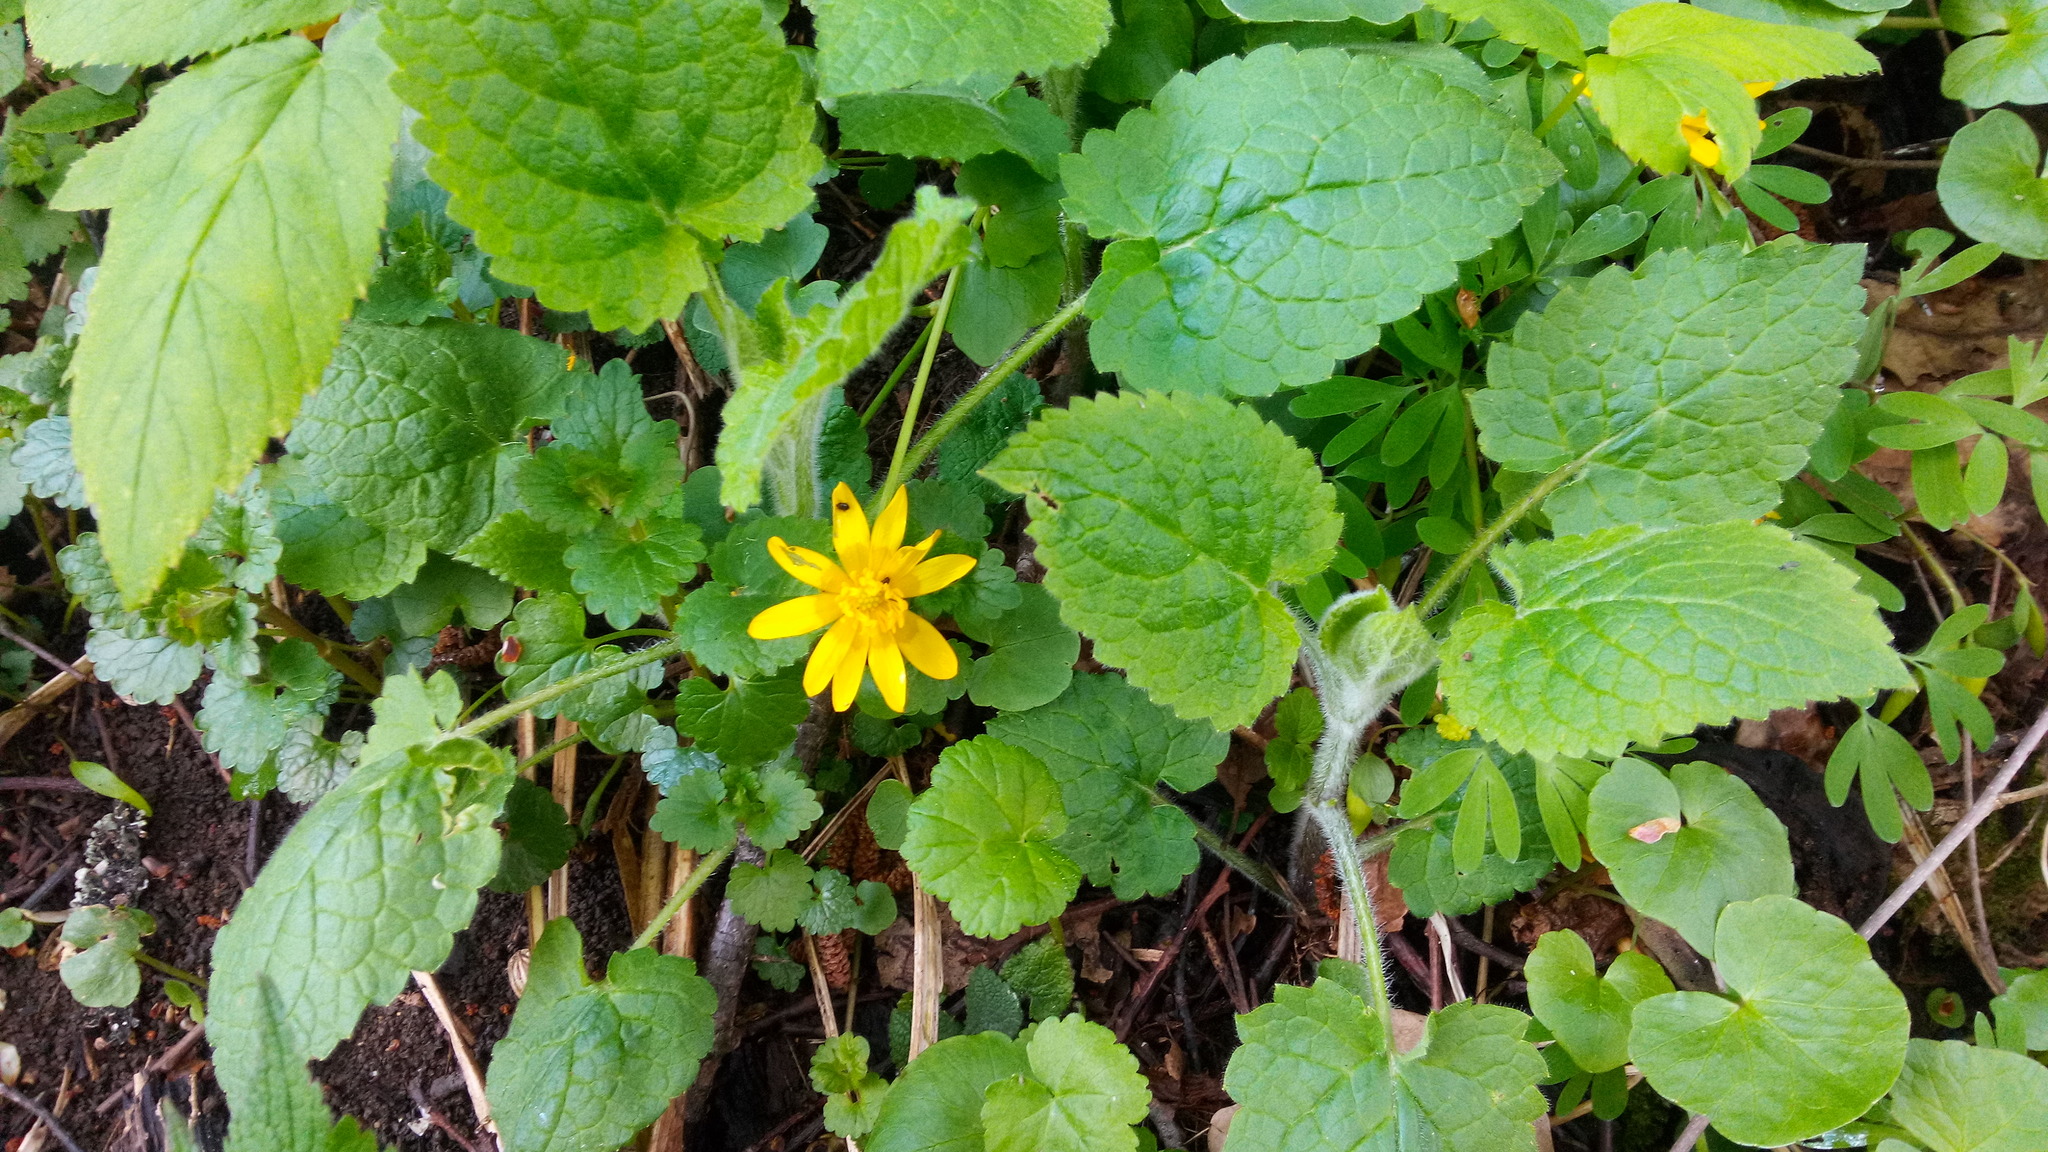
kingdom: Plantae
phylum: Tracheophyta
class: Magnoliopsida
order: Lamiales
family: Lamiaceae
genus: Stachys
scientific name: Stachys sylvatica
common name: Hedge woundwort
